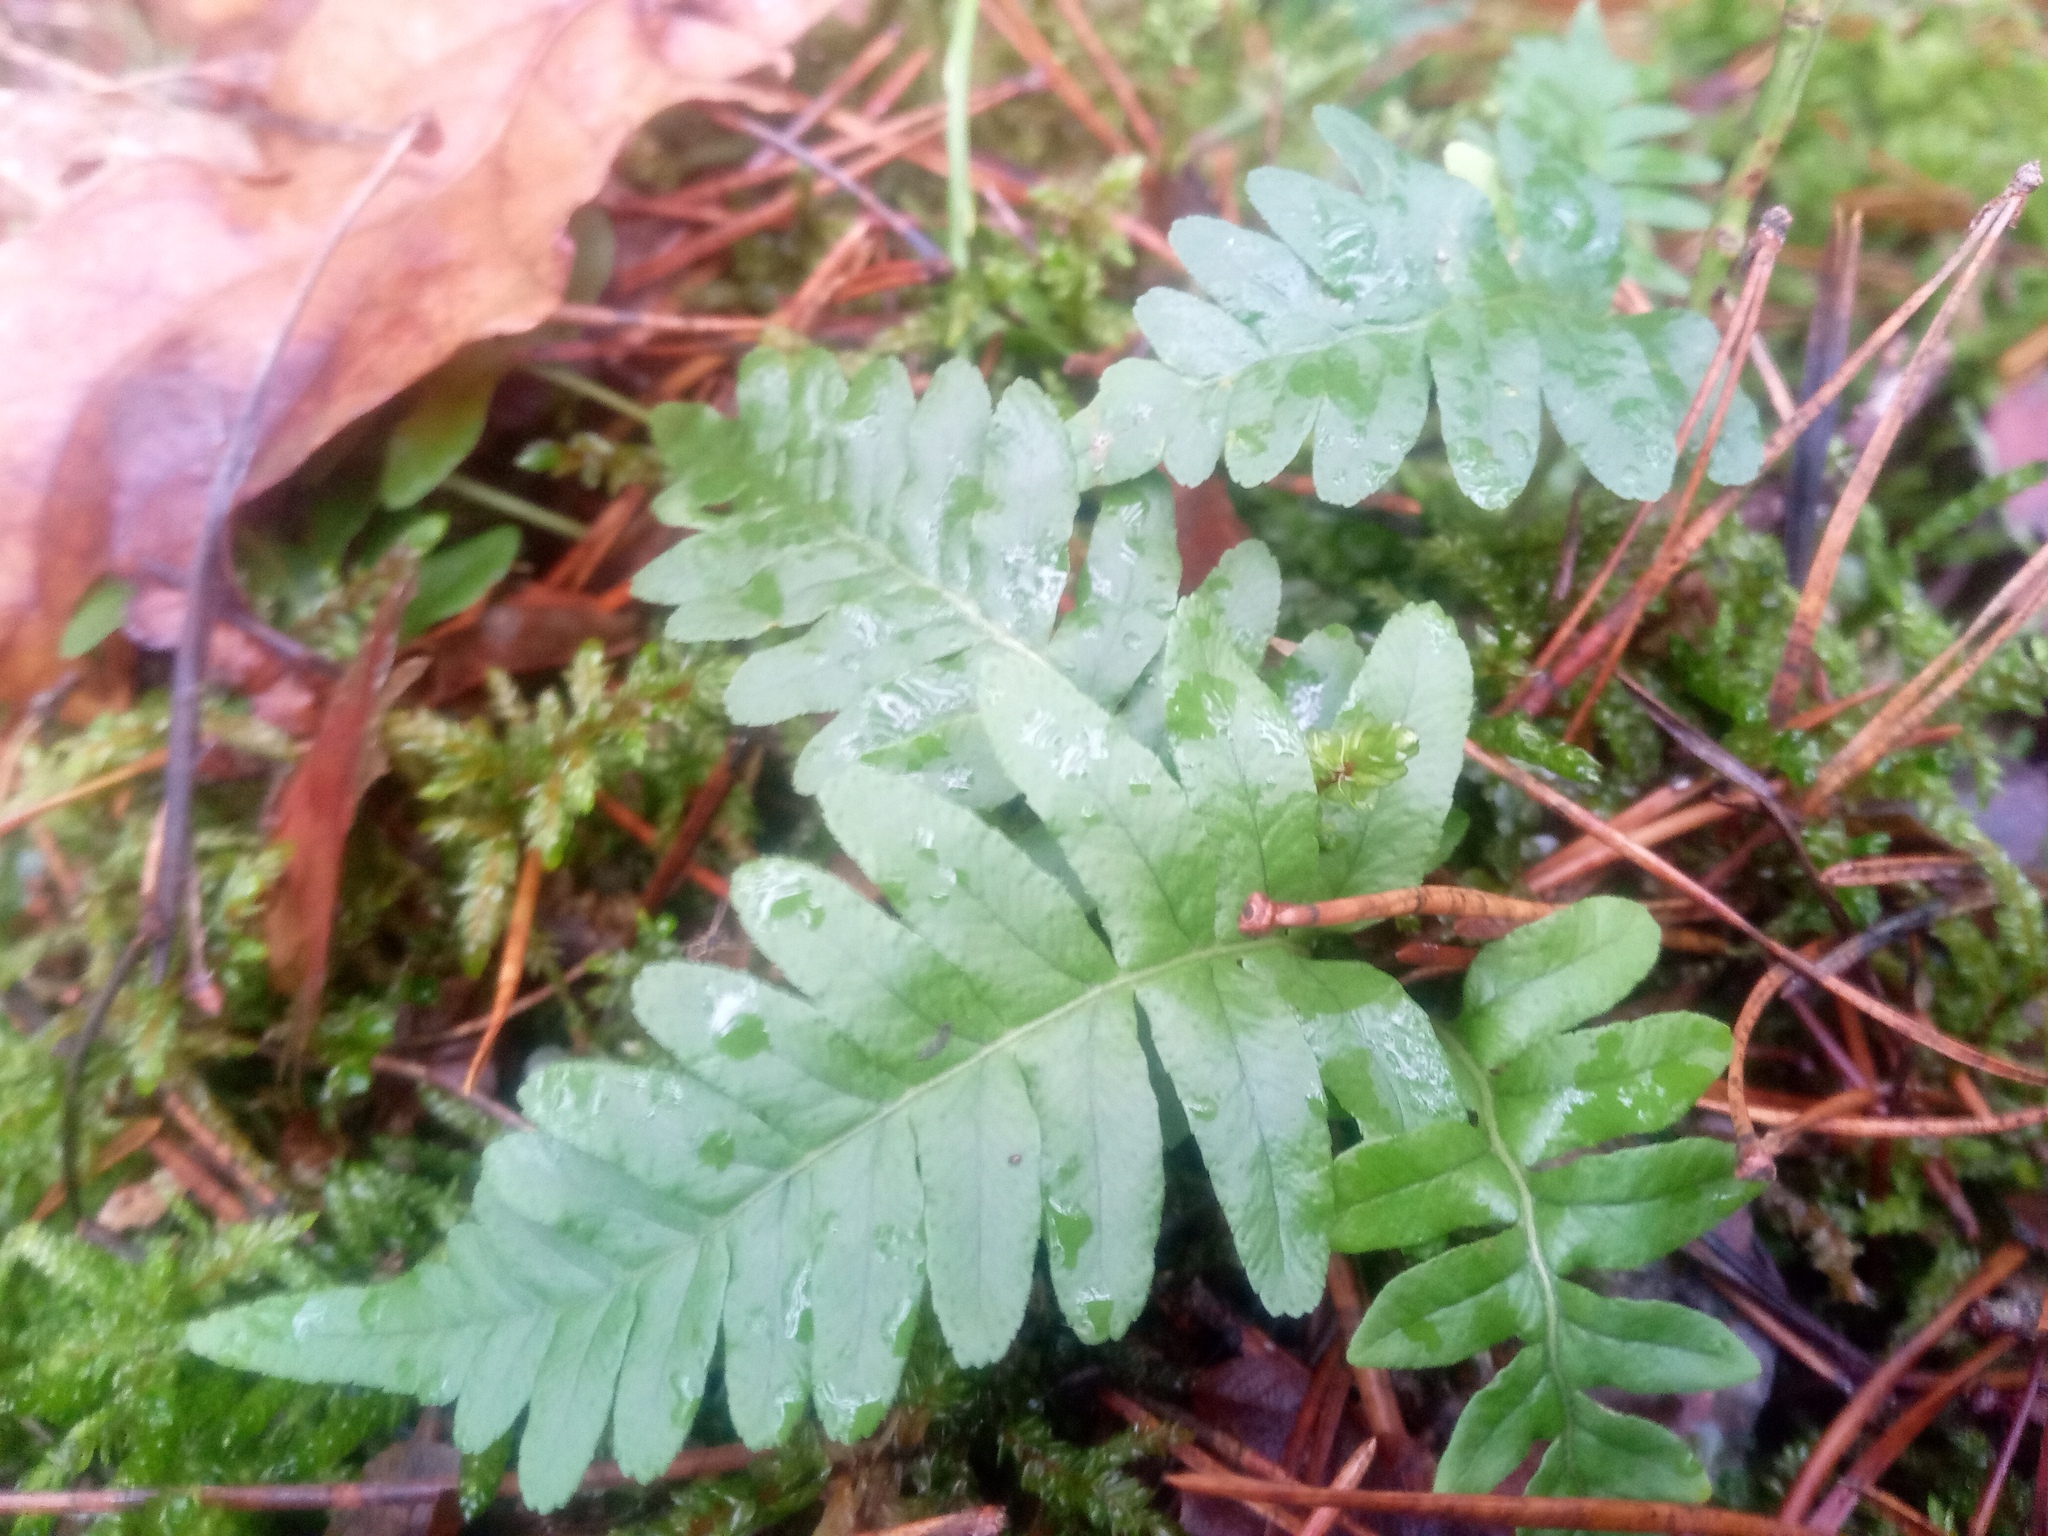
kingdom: Plantae
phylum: Tracheophyta
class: Polypodiopsida
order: Polypodiales
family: Polypodiaceae
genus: Polypodium
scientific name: Polypodium vulgare
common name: Common polypody
